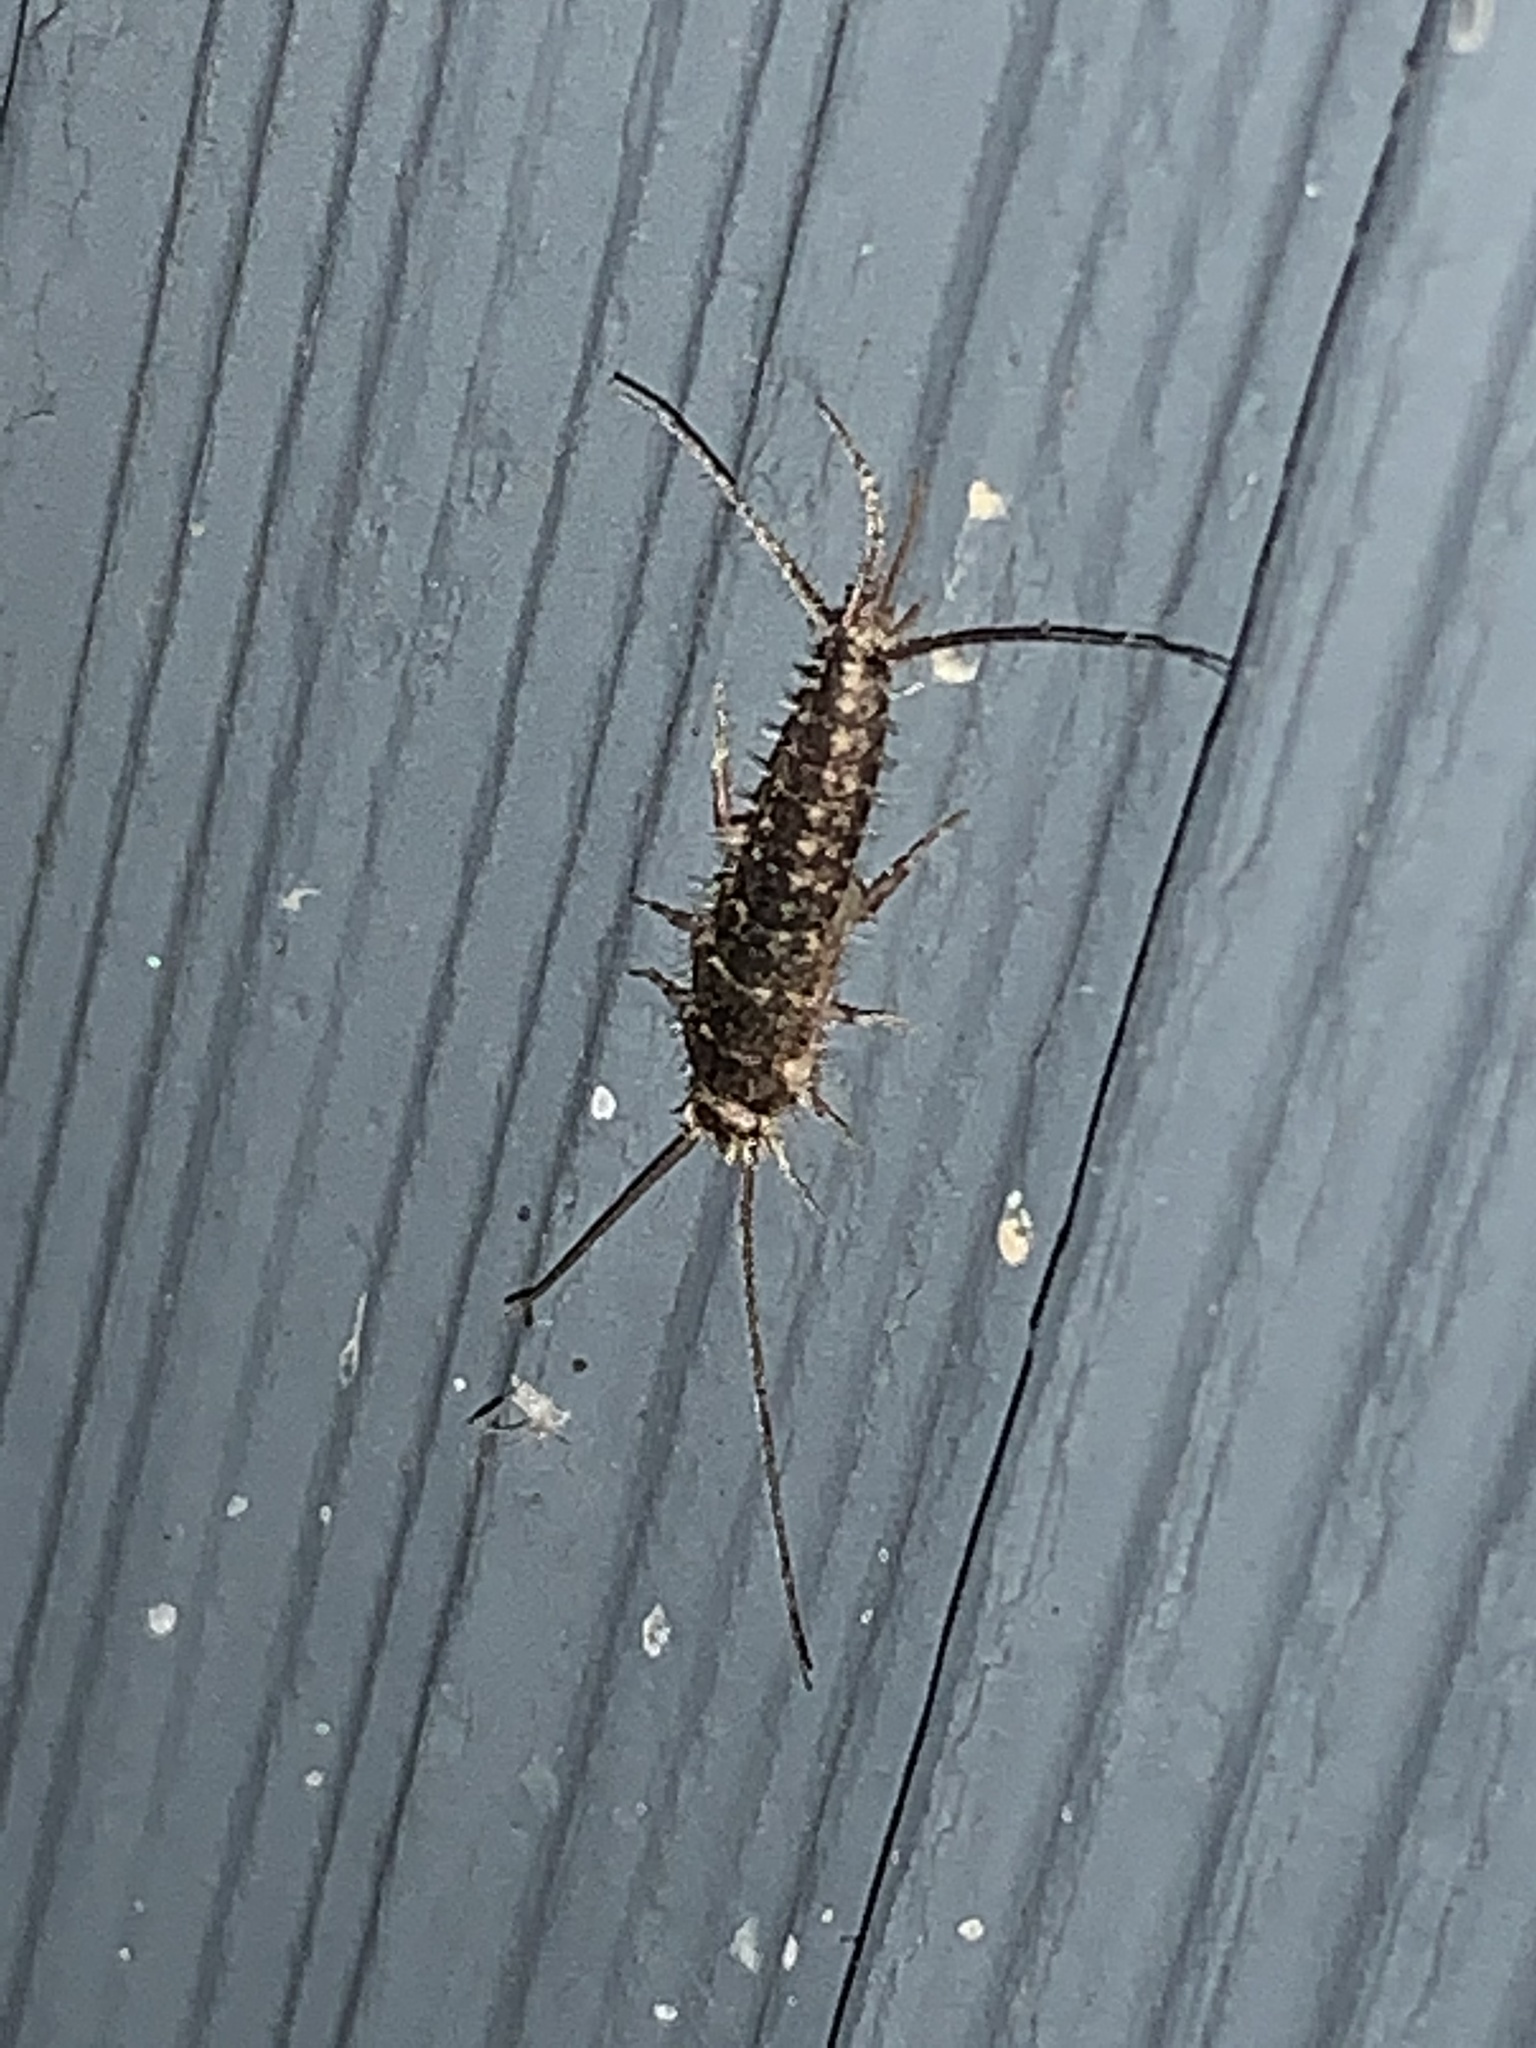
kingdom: Animalia
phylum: Arthropoda
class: Insecta
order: Zygentoma
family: Lepismatidae
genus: Ctenolepisma
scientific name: Ctenolepisma lineata
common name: Four-lined silverfish
